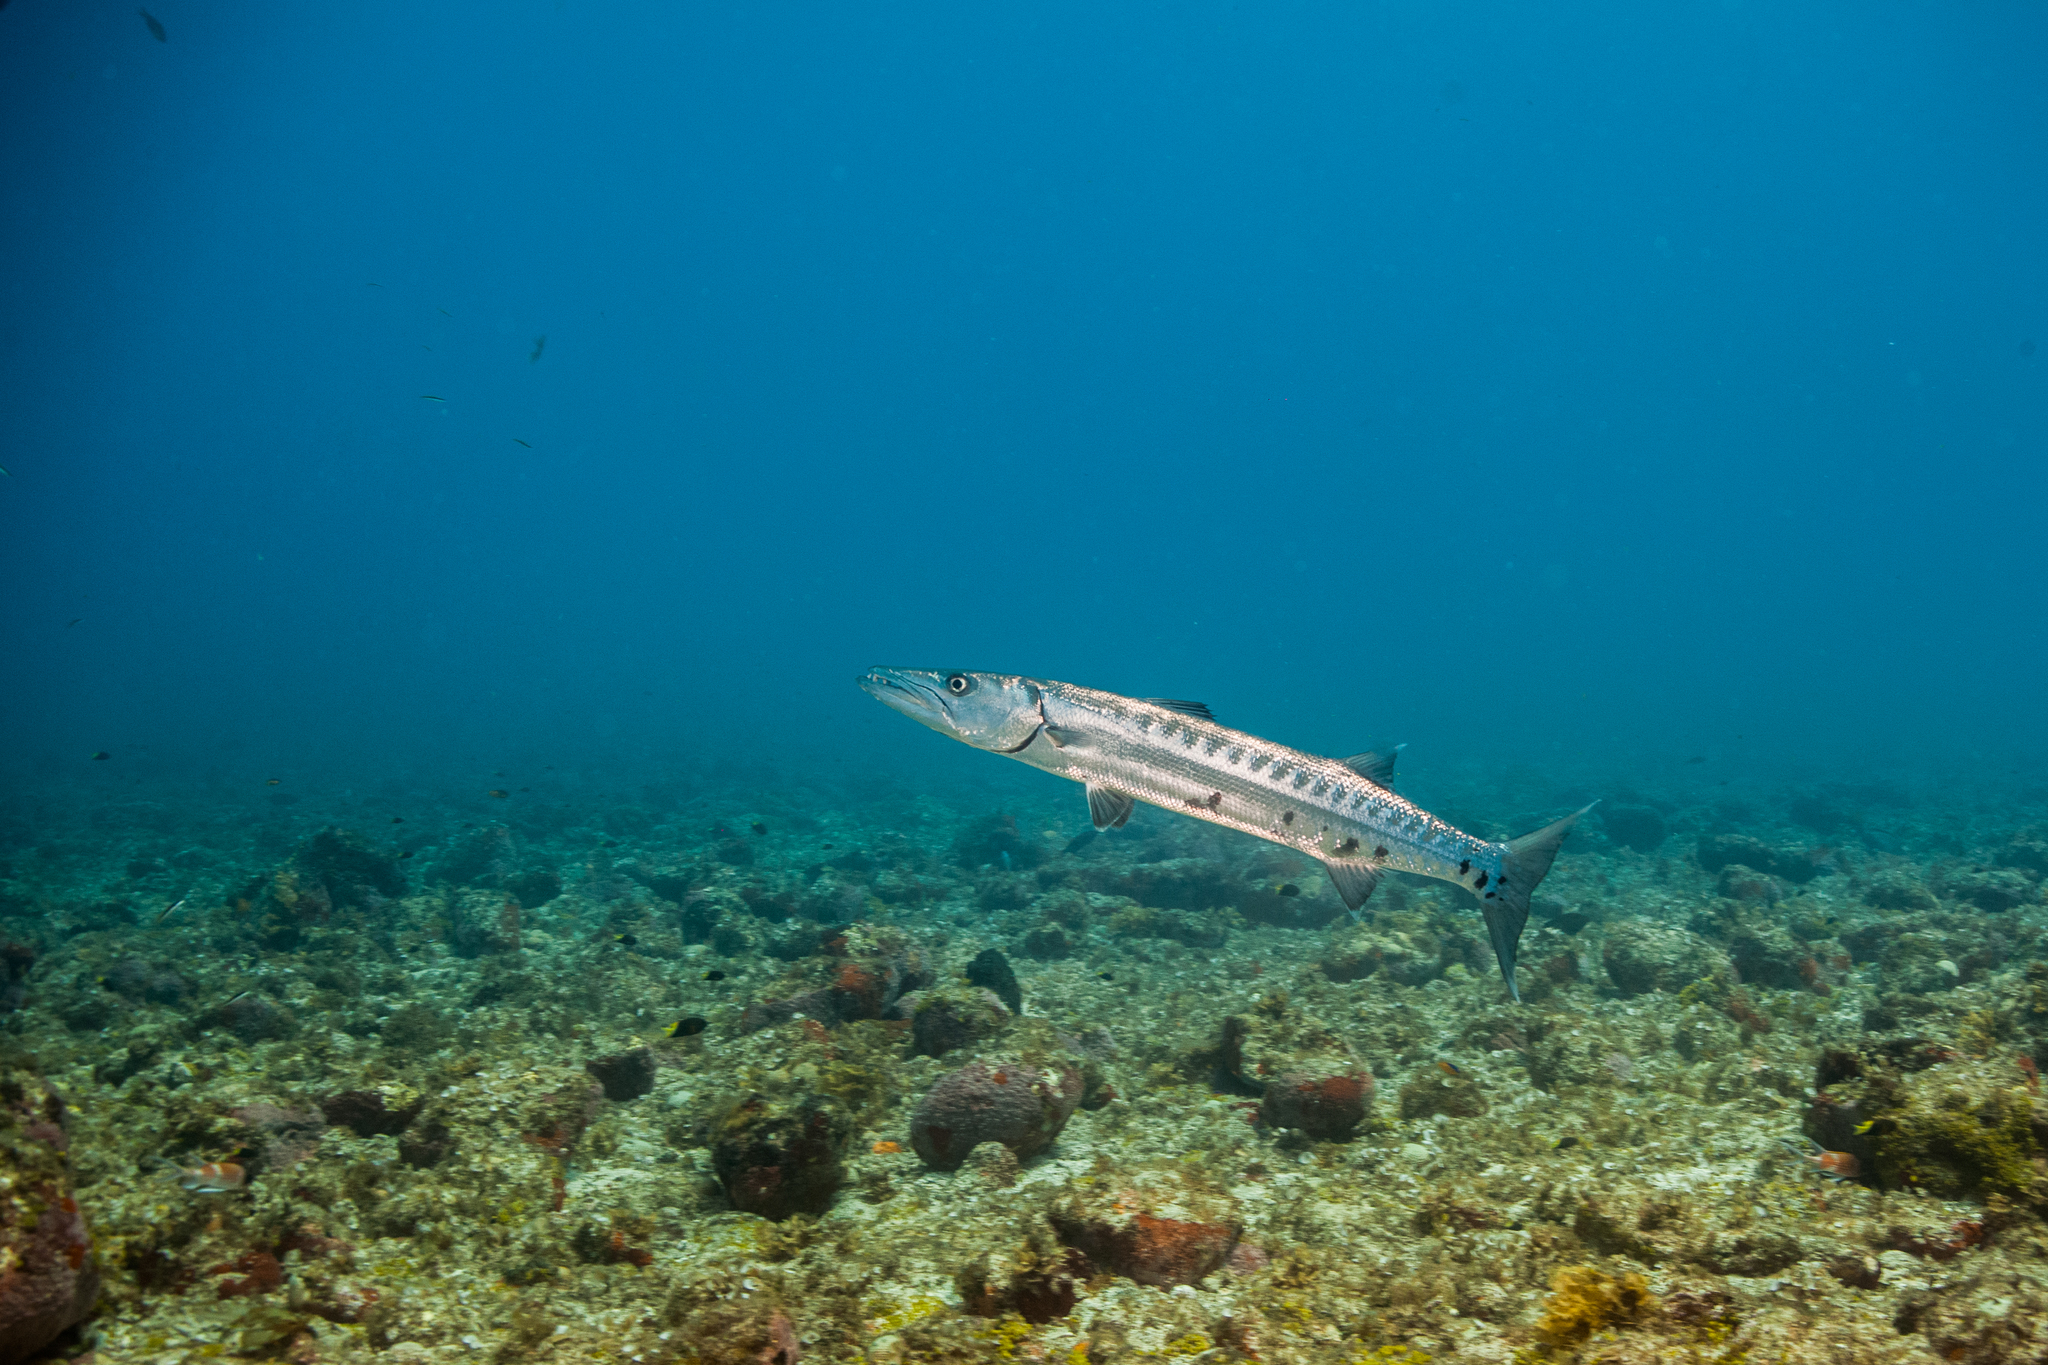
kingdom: Animalia
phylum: Chordata
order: Perciformes
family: Sphyraenidae
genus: Sphyraena
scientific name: Sphyraena barracuda
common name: Great barracuda
